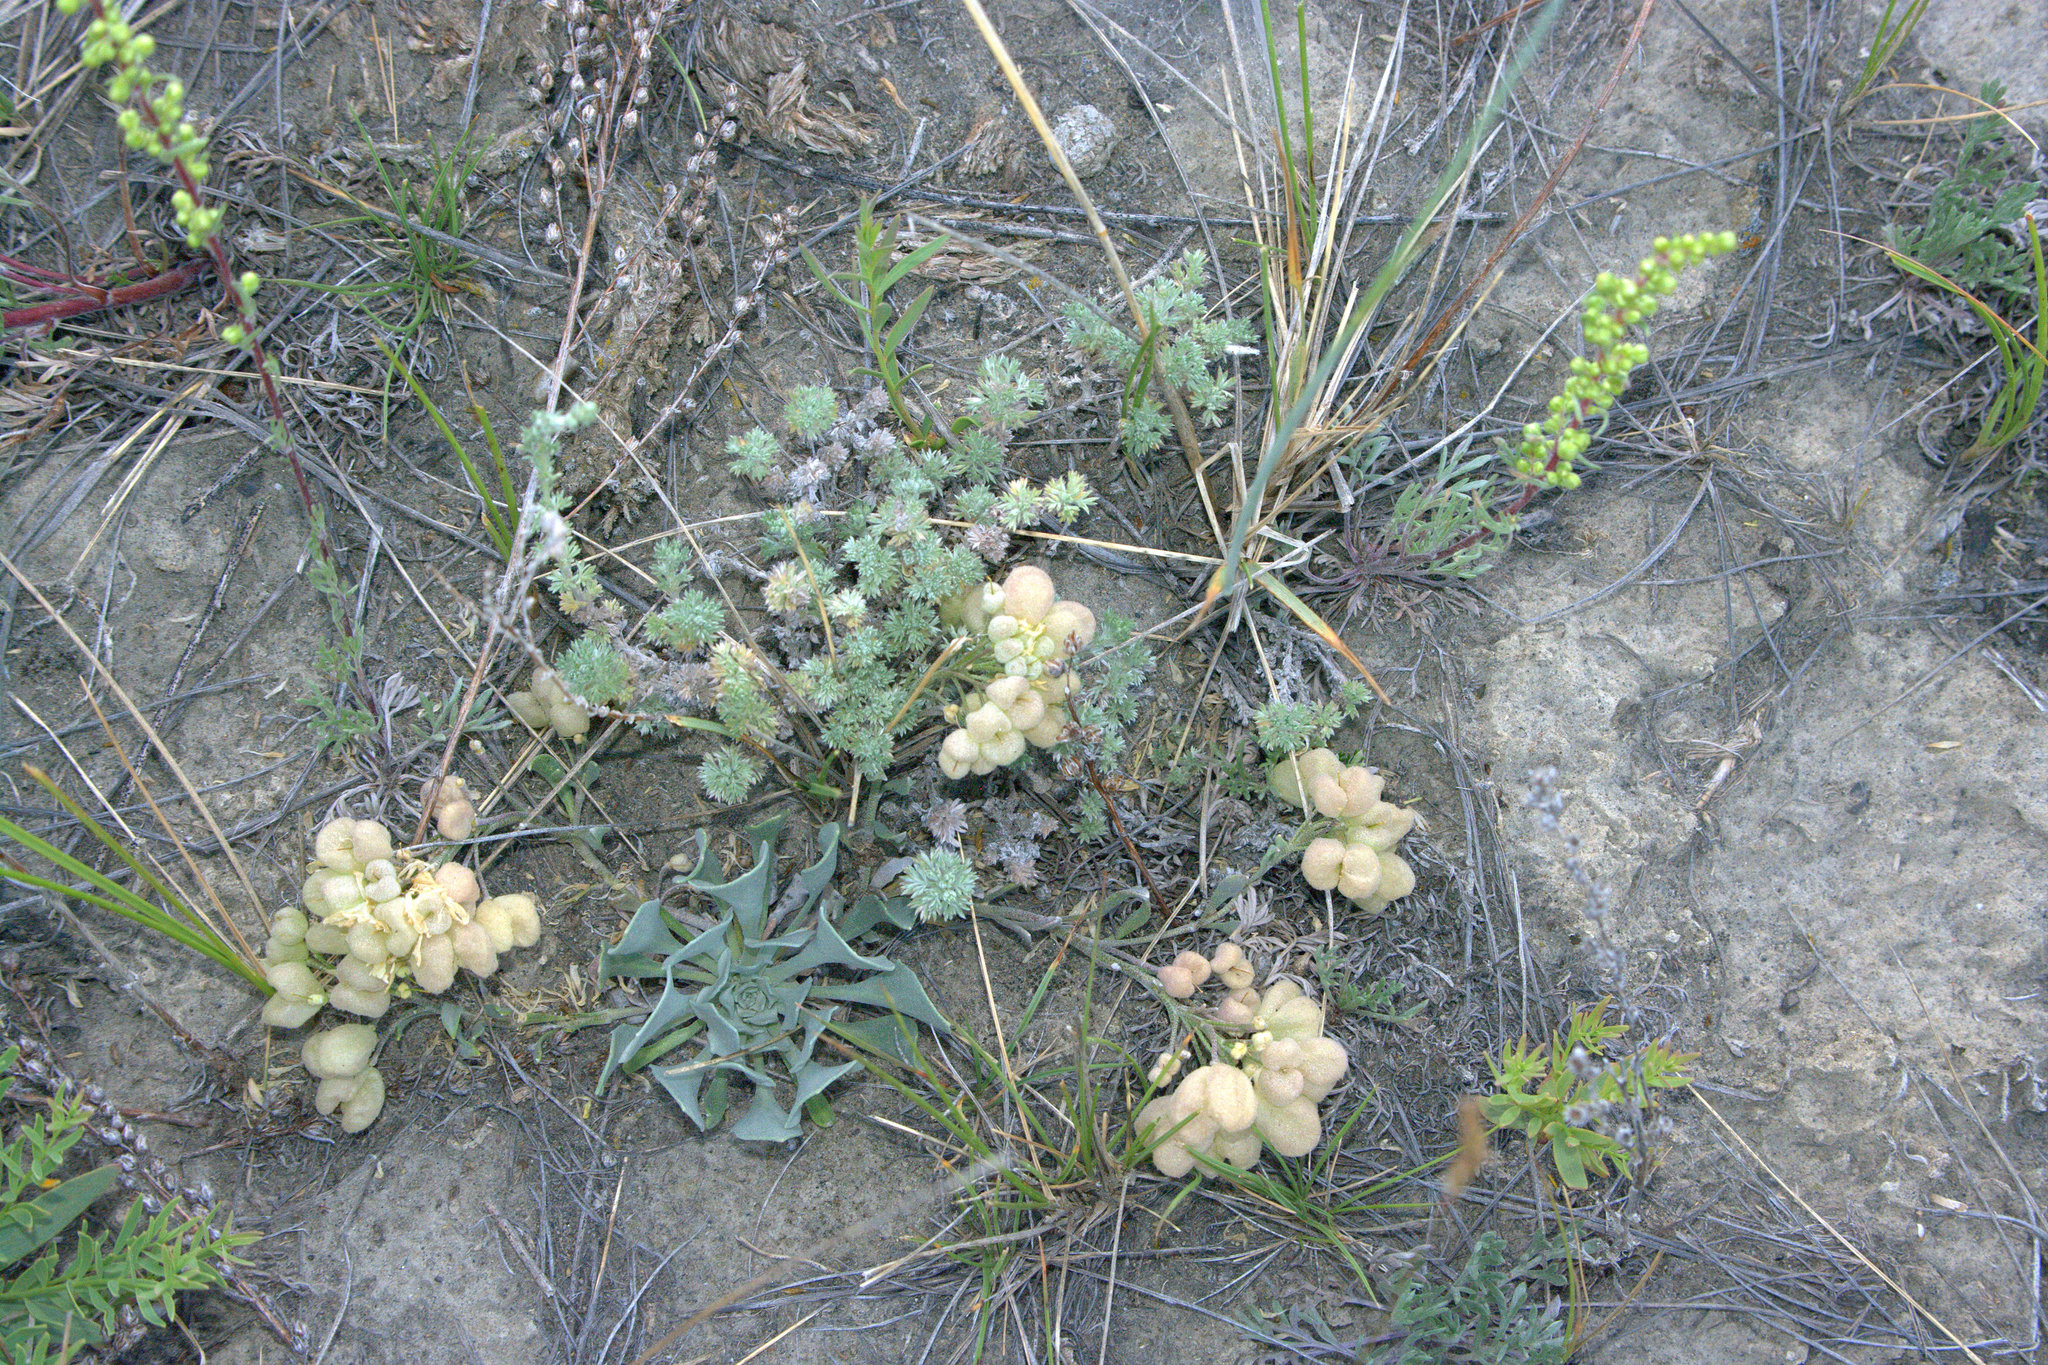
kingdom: Plantae
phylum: Tracheophyta
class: Magnoliopsida
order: Brassicales
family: Brassicaceae
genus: Physaria
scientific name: Physaria didymocarpa
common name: Common twinpod
